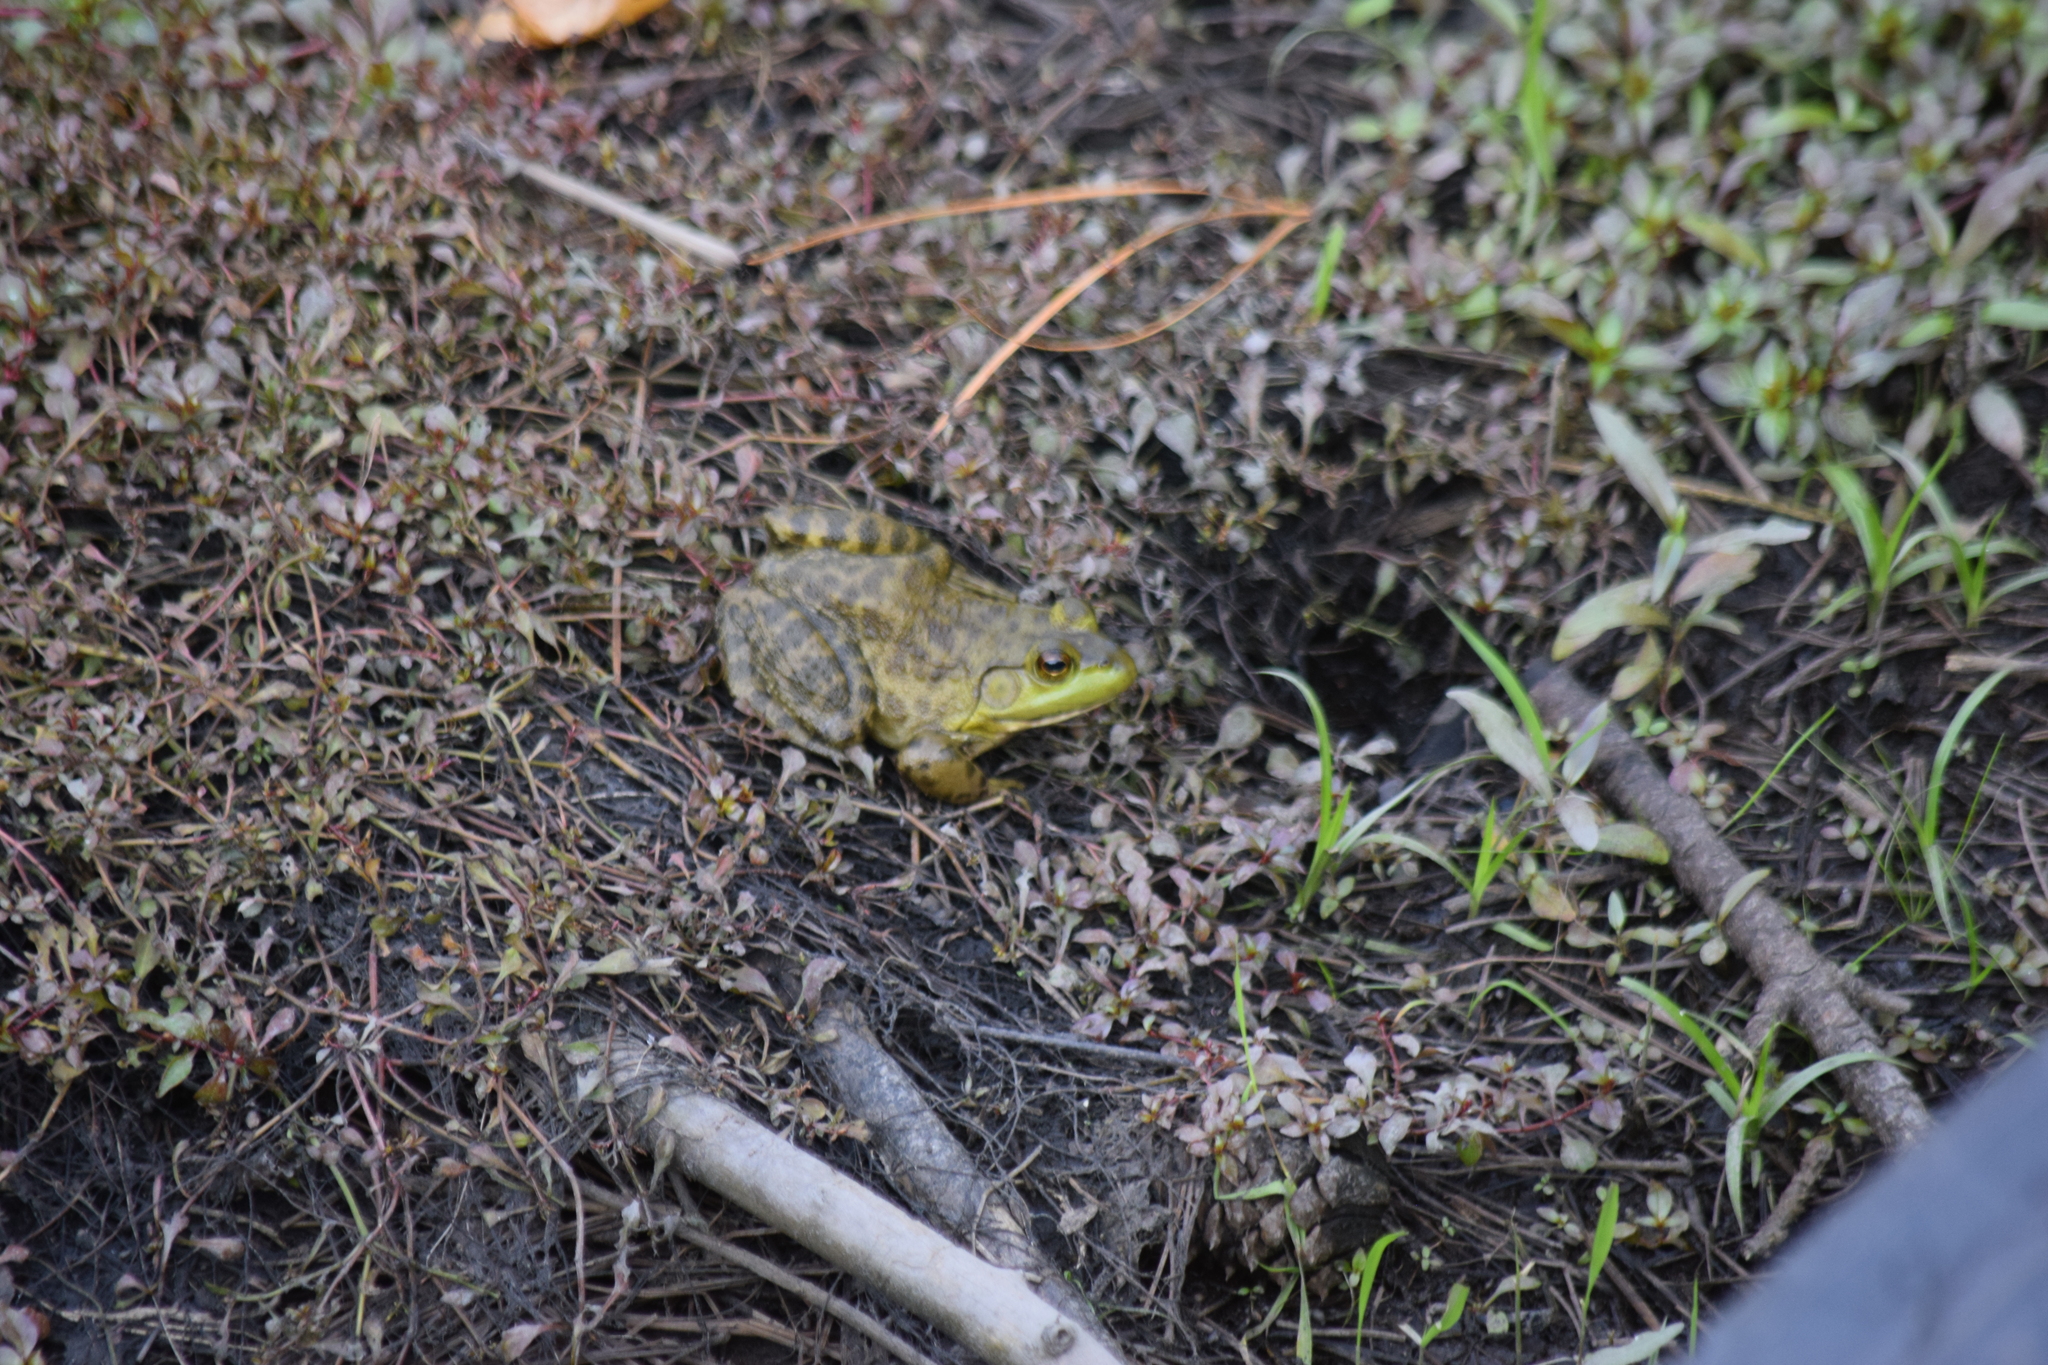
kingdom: Animalia
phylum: Chordata
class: Amphibia
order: Anura
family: Ranidae
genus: Lithobates
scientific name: Lithobates catesbeianus
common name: American bullfrog
